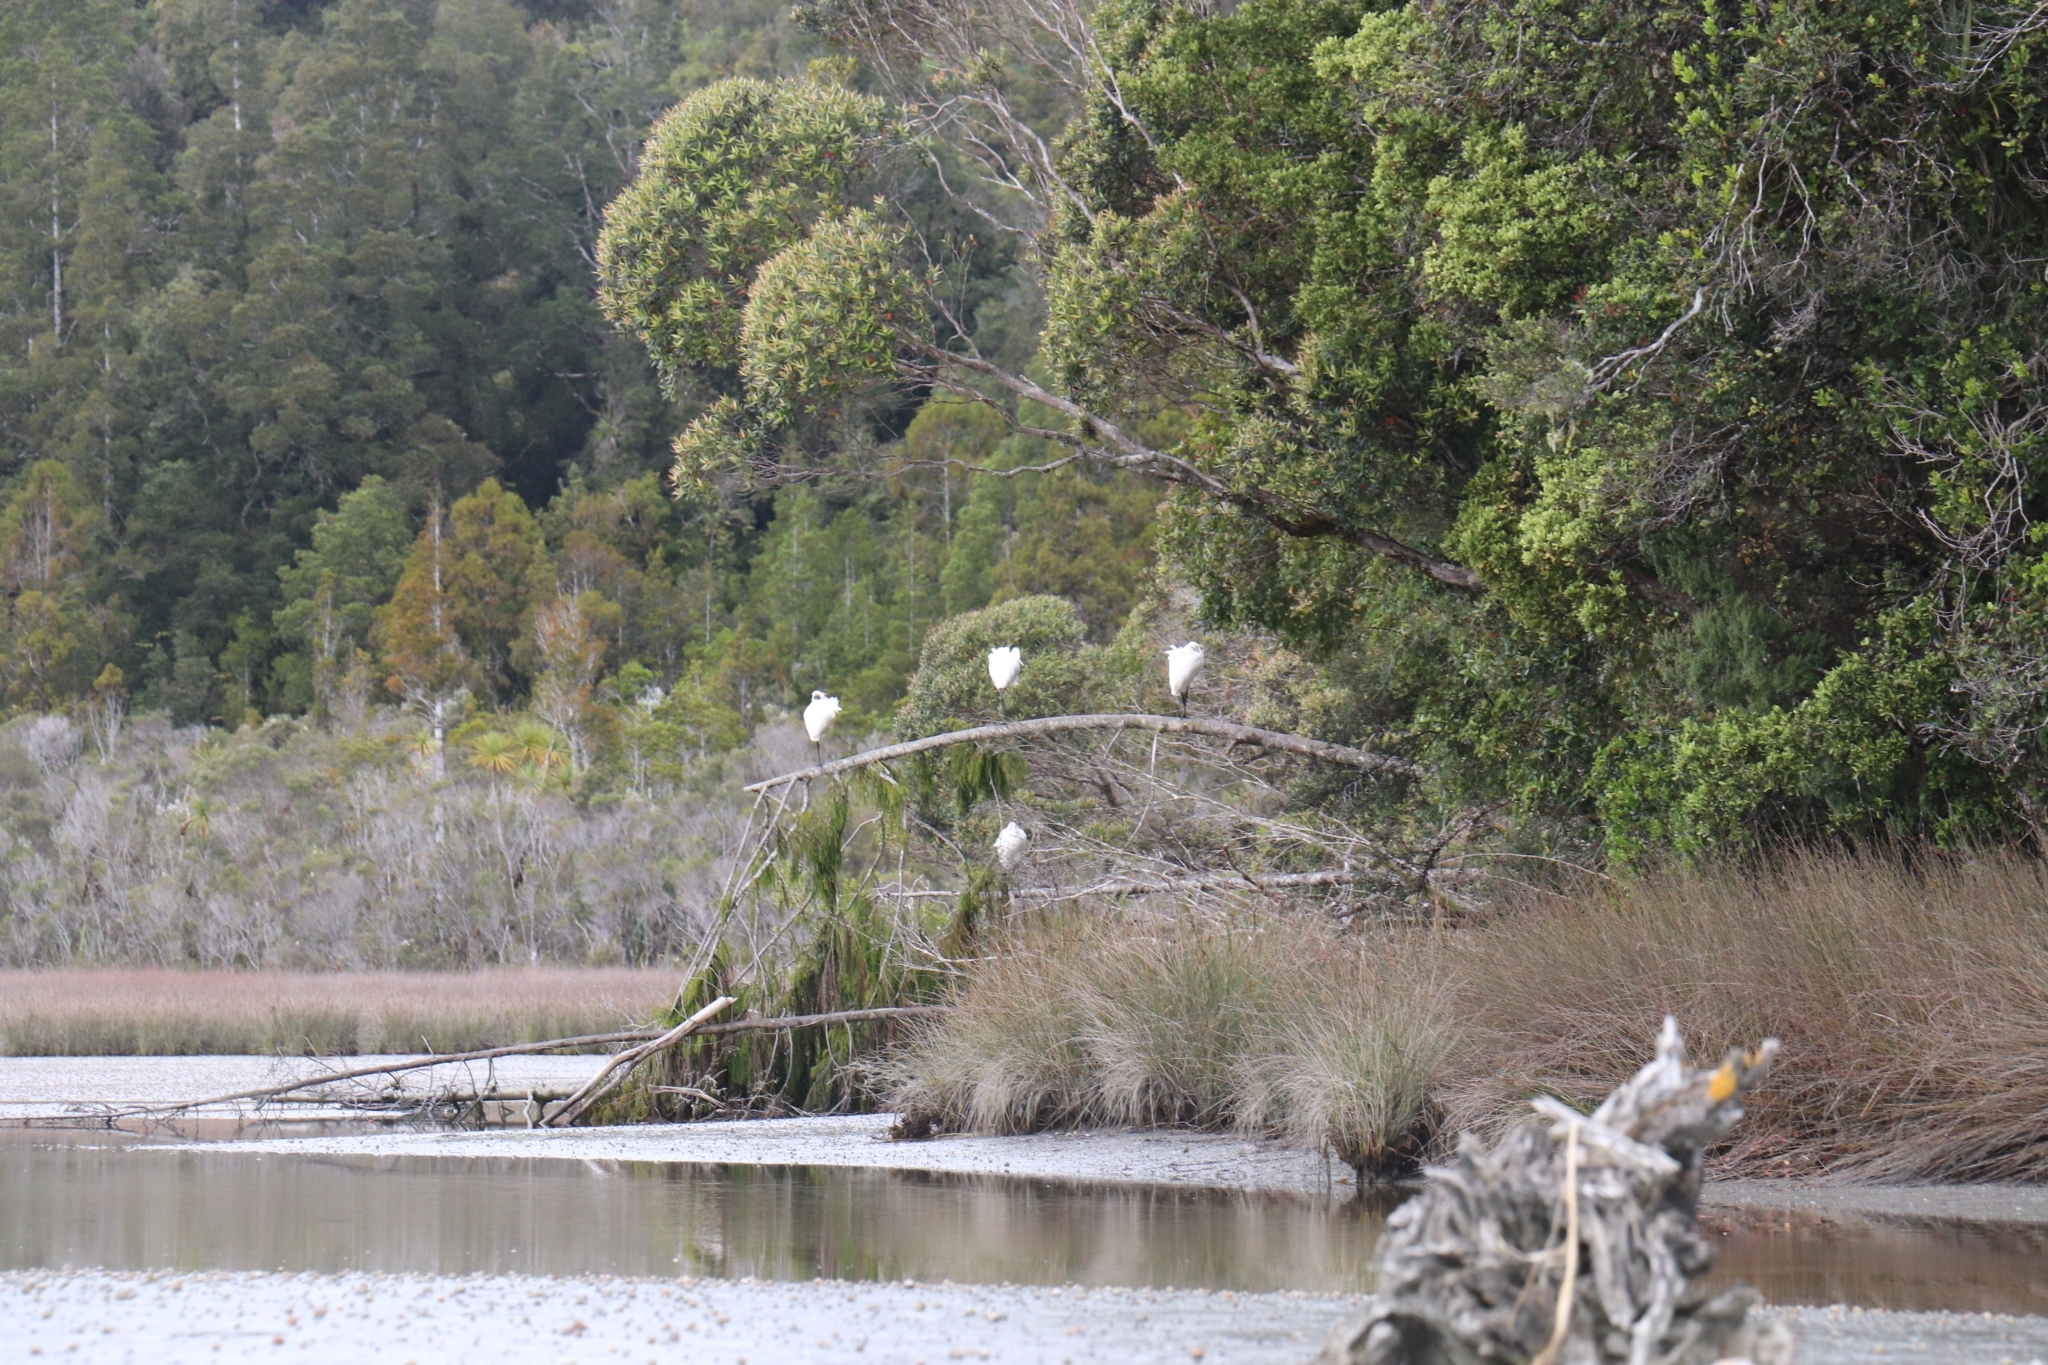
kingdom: Animalia
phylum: Chordata
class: Aves
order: Pelecaniformes
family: Threskiornithidae
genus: Platalea
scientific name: Platalea regia
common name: Royal spoonbill
